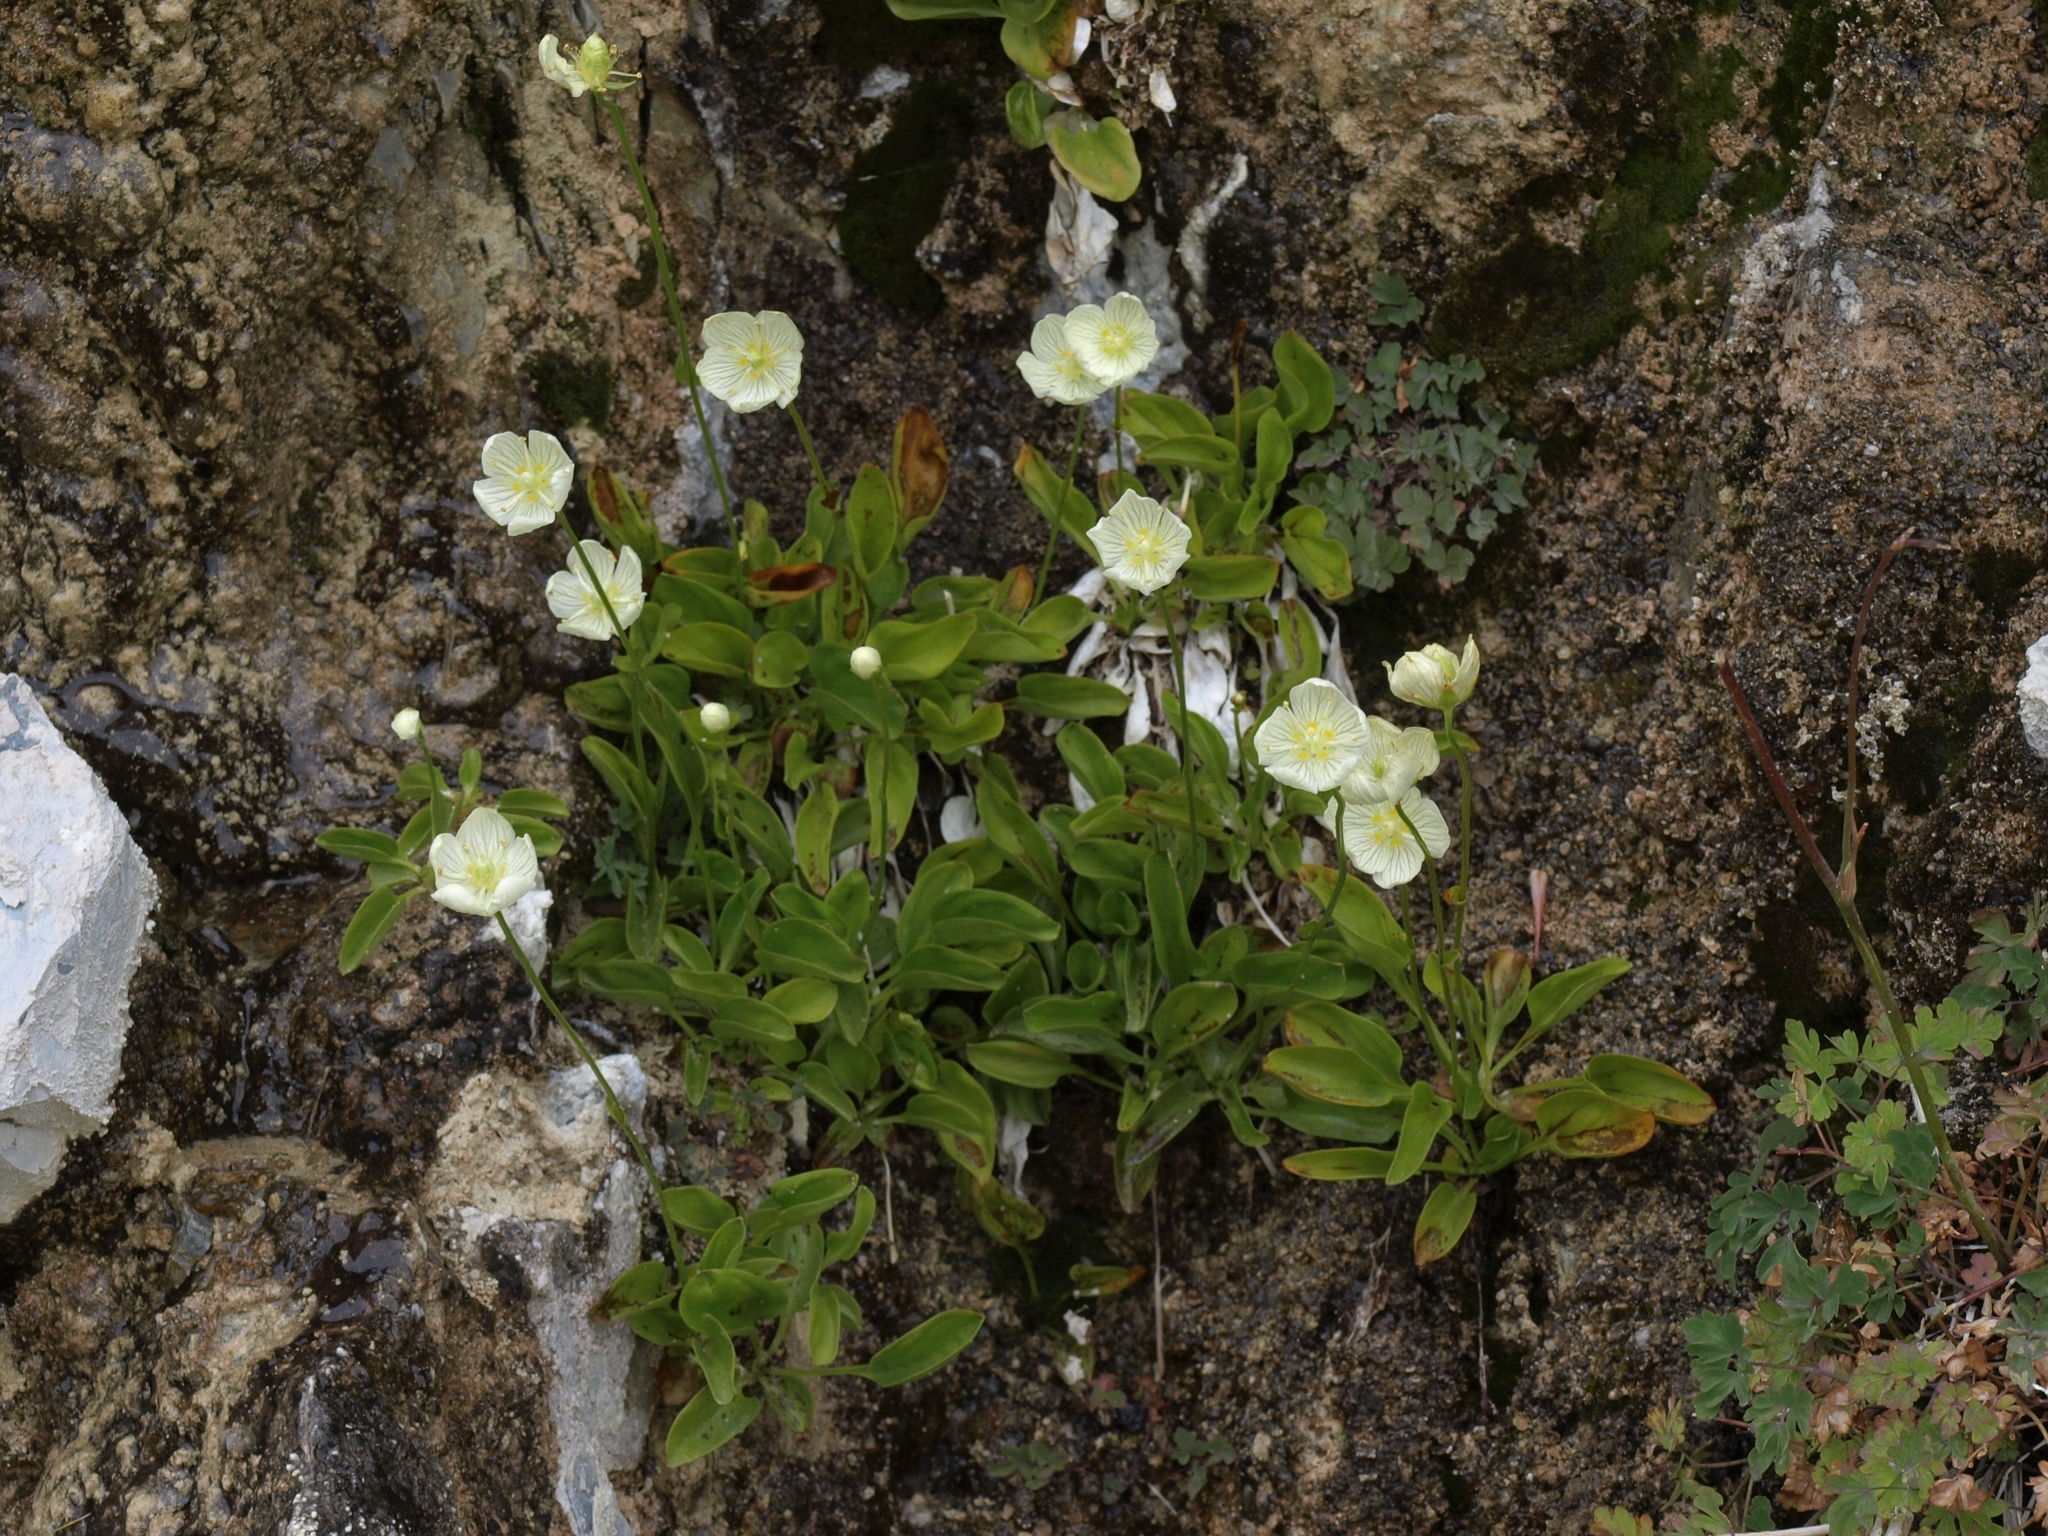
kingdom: Plantae
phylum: Tracheophyta
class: Magnoliopsida
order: Celastrales
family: Parnassiaceae
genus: Parnassia
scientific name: Parnassia palustris
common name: Grass-of-parnassus
